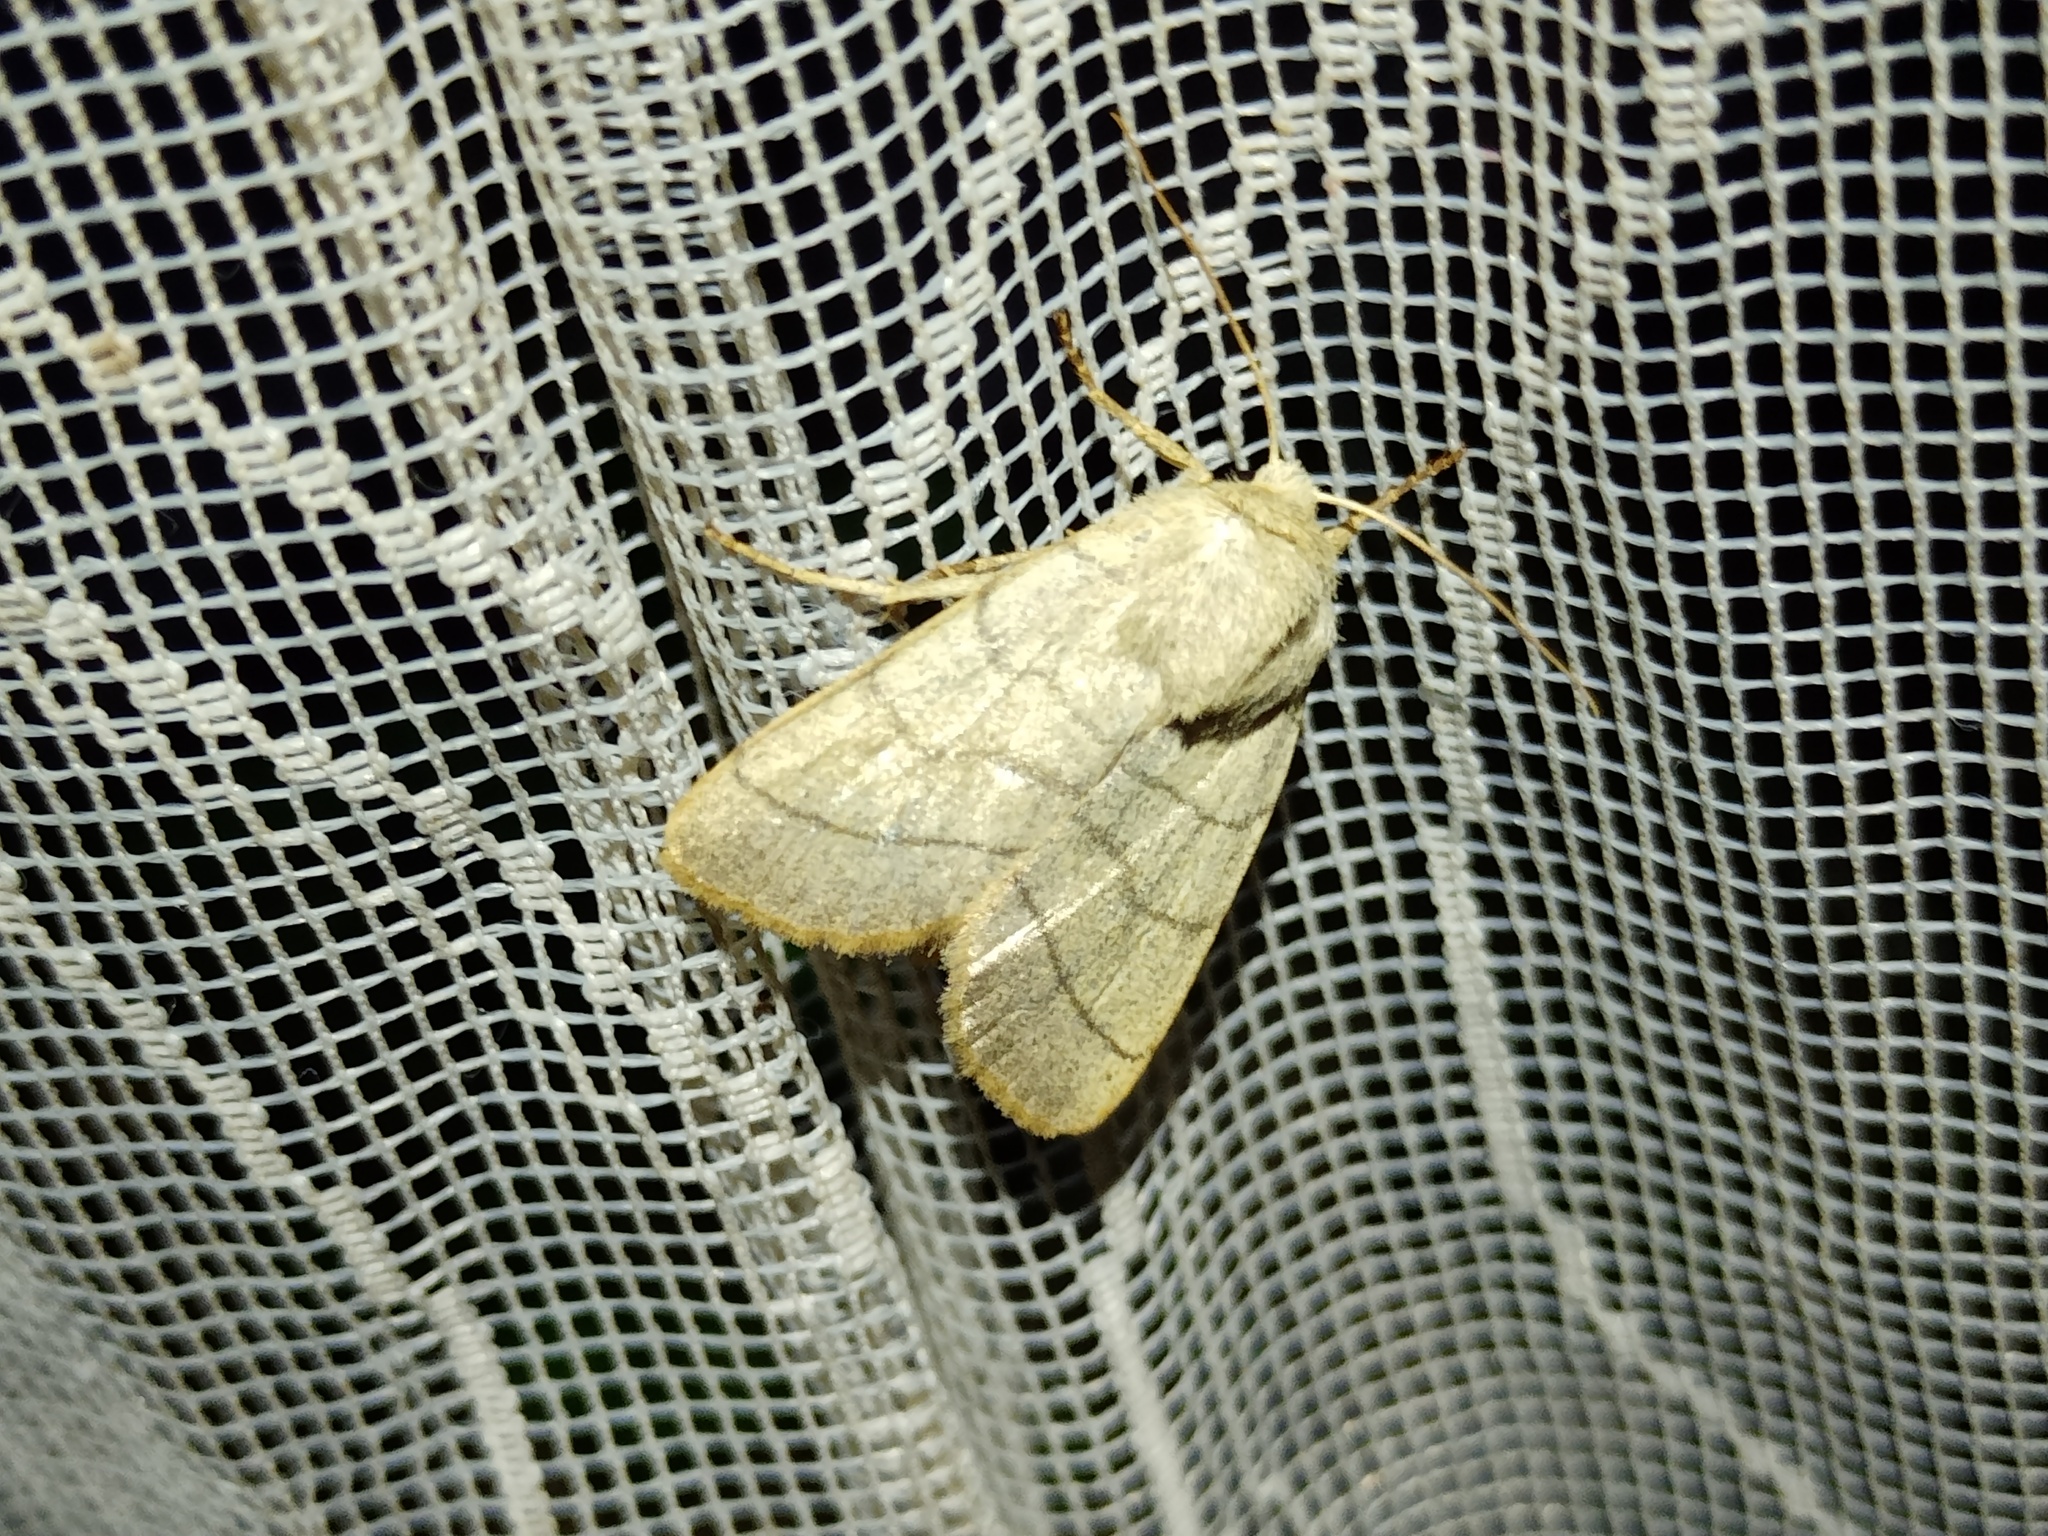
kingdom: Animalia
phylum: Arthropoda
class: Insecta
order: Lepidoptera
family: Noctuidae
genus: Charanyca
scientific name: Charanyca trigrammica
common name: Treble lines
